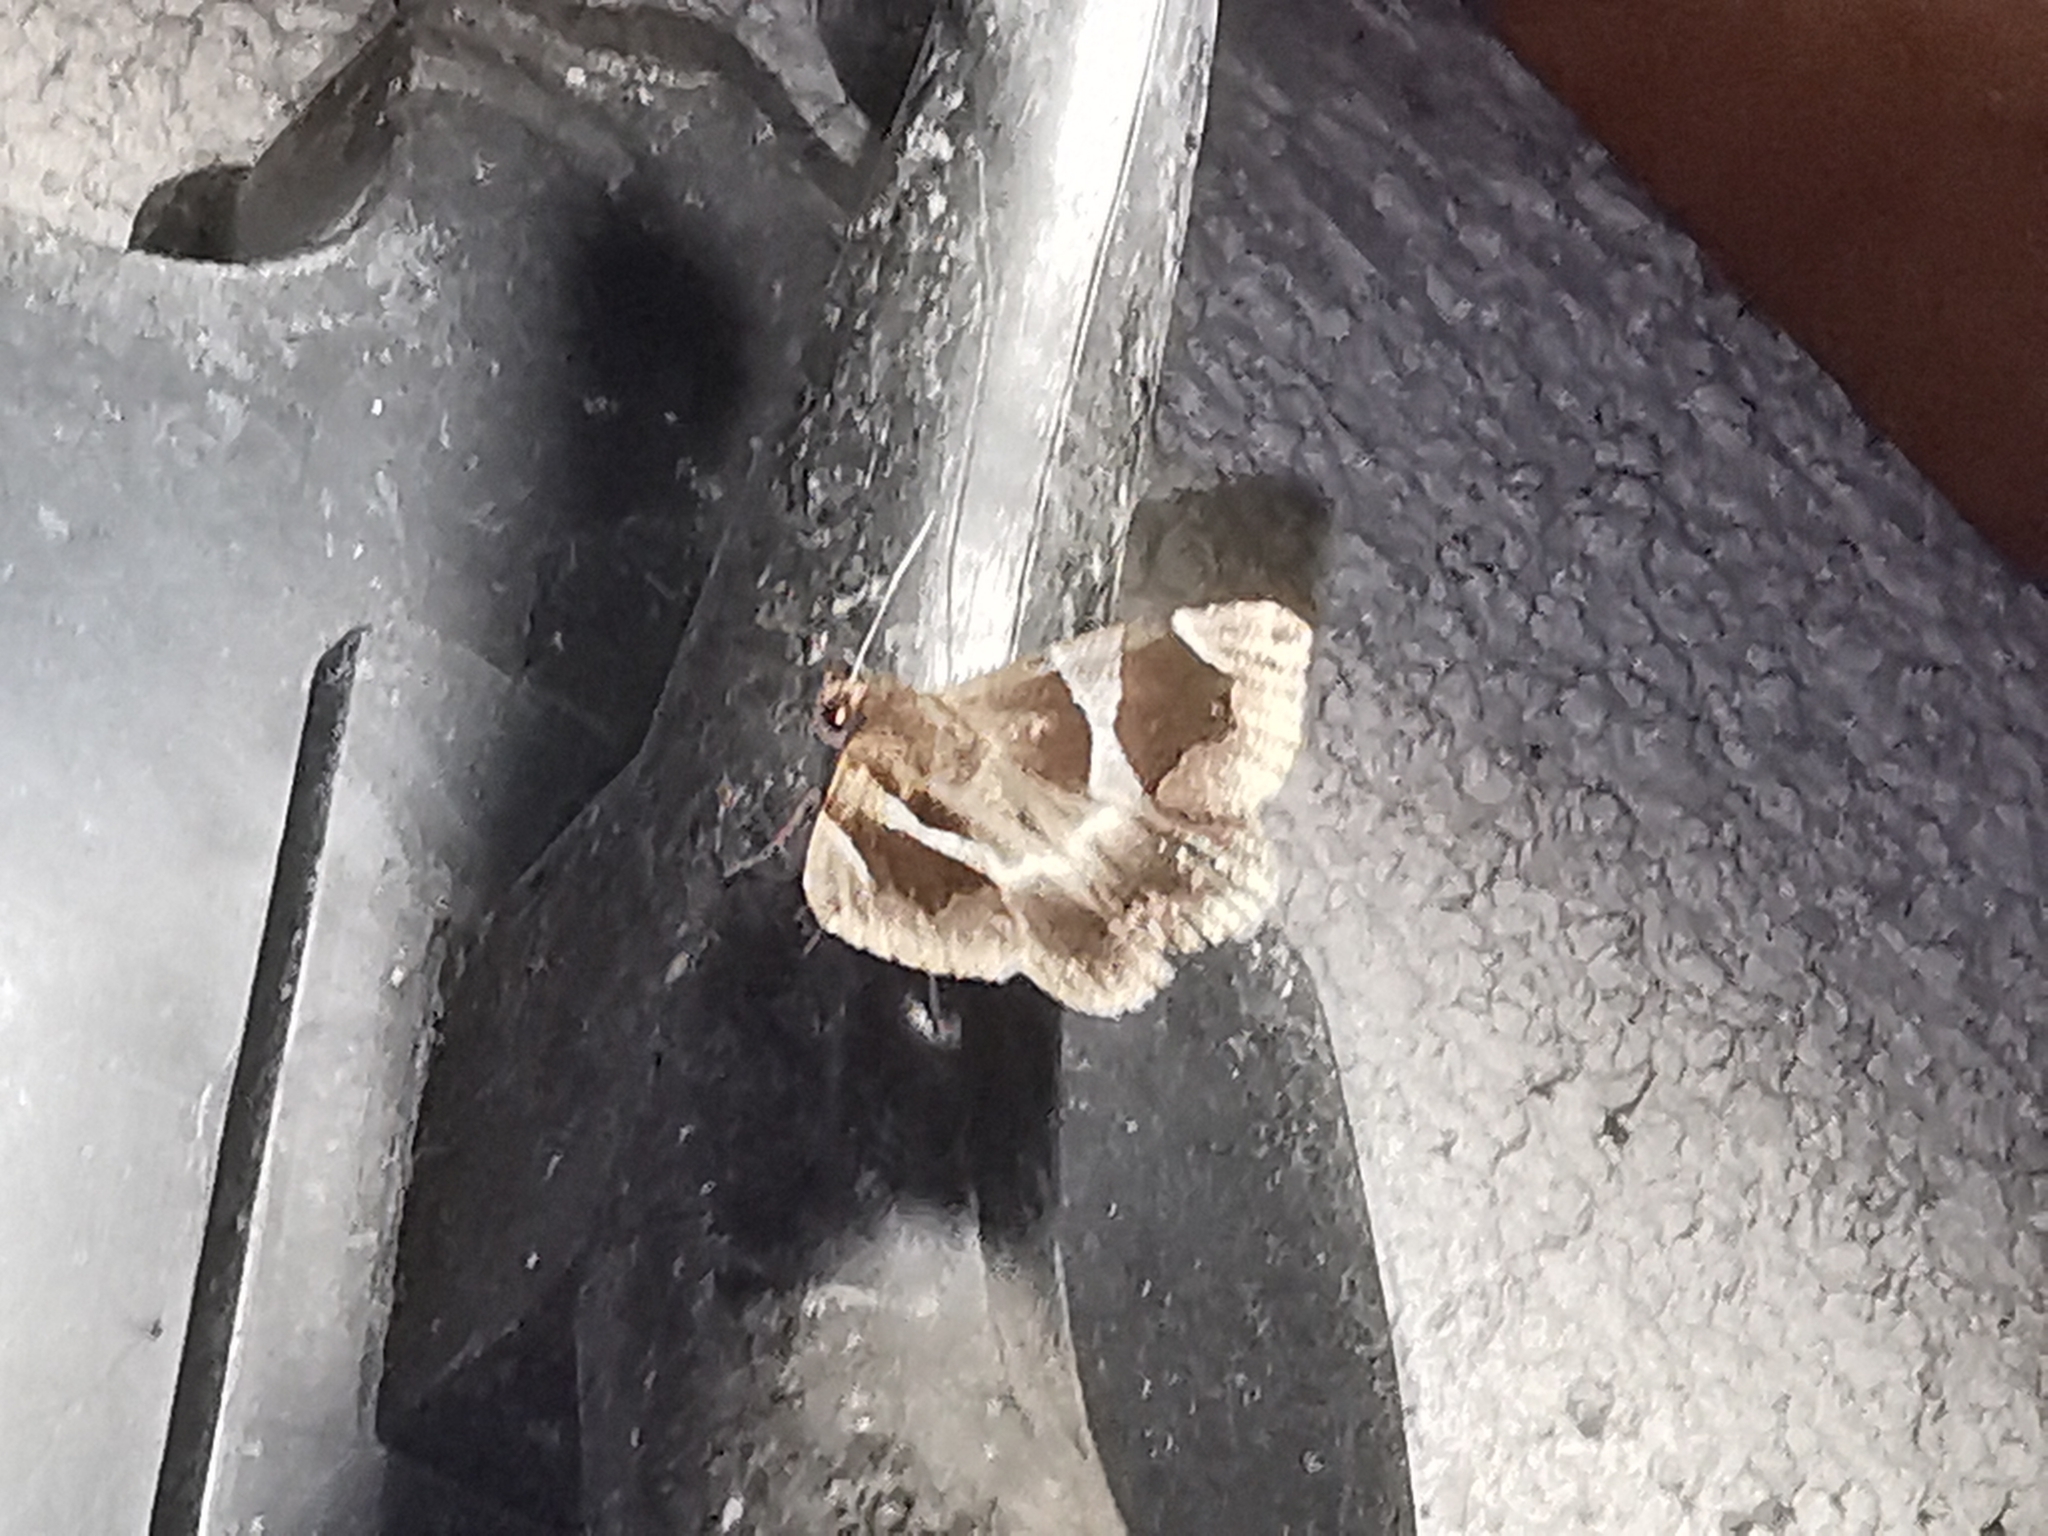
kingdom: Animalia
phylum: Arthropoda
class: Insecta
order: Lepidoptera
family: Erebidae
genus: Dysgonia
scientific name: Dysgonia algira
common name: Passenger
